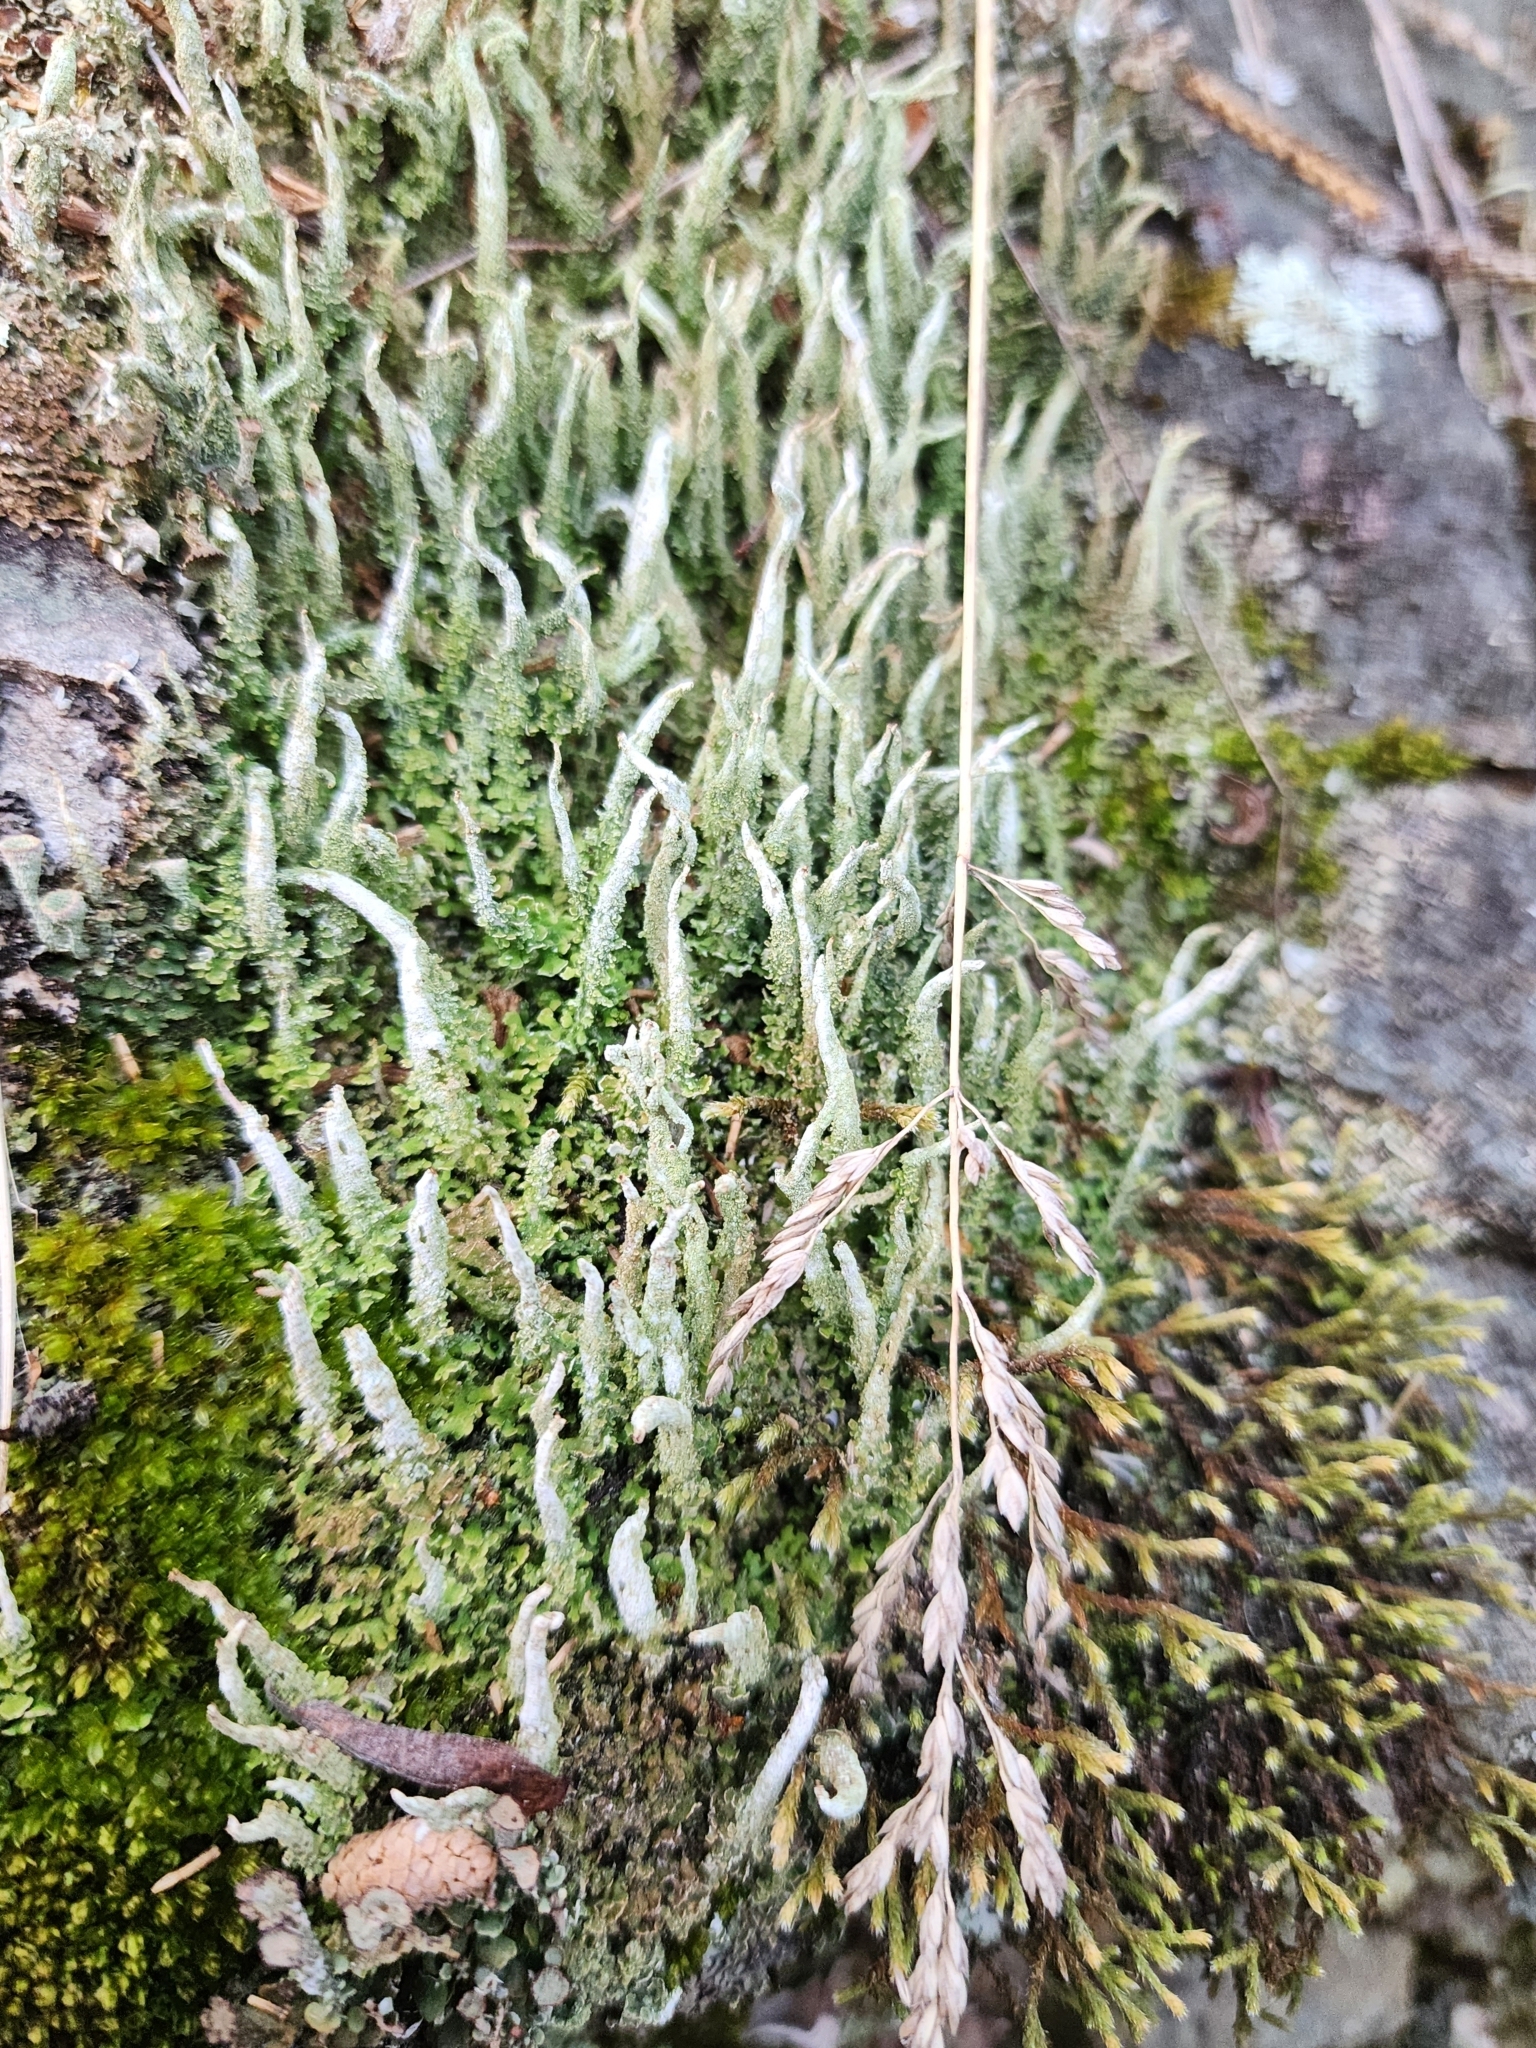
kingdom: Fungi
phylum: Ascomycota
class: Lecanoromycetes
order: Lecanorales
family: Cladoniaceae
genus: Cladonia
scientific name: Cladonia coniocraea
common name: Common powderhorn
